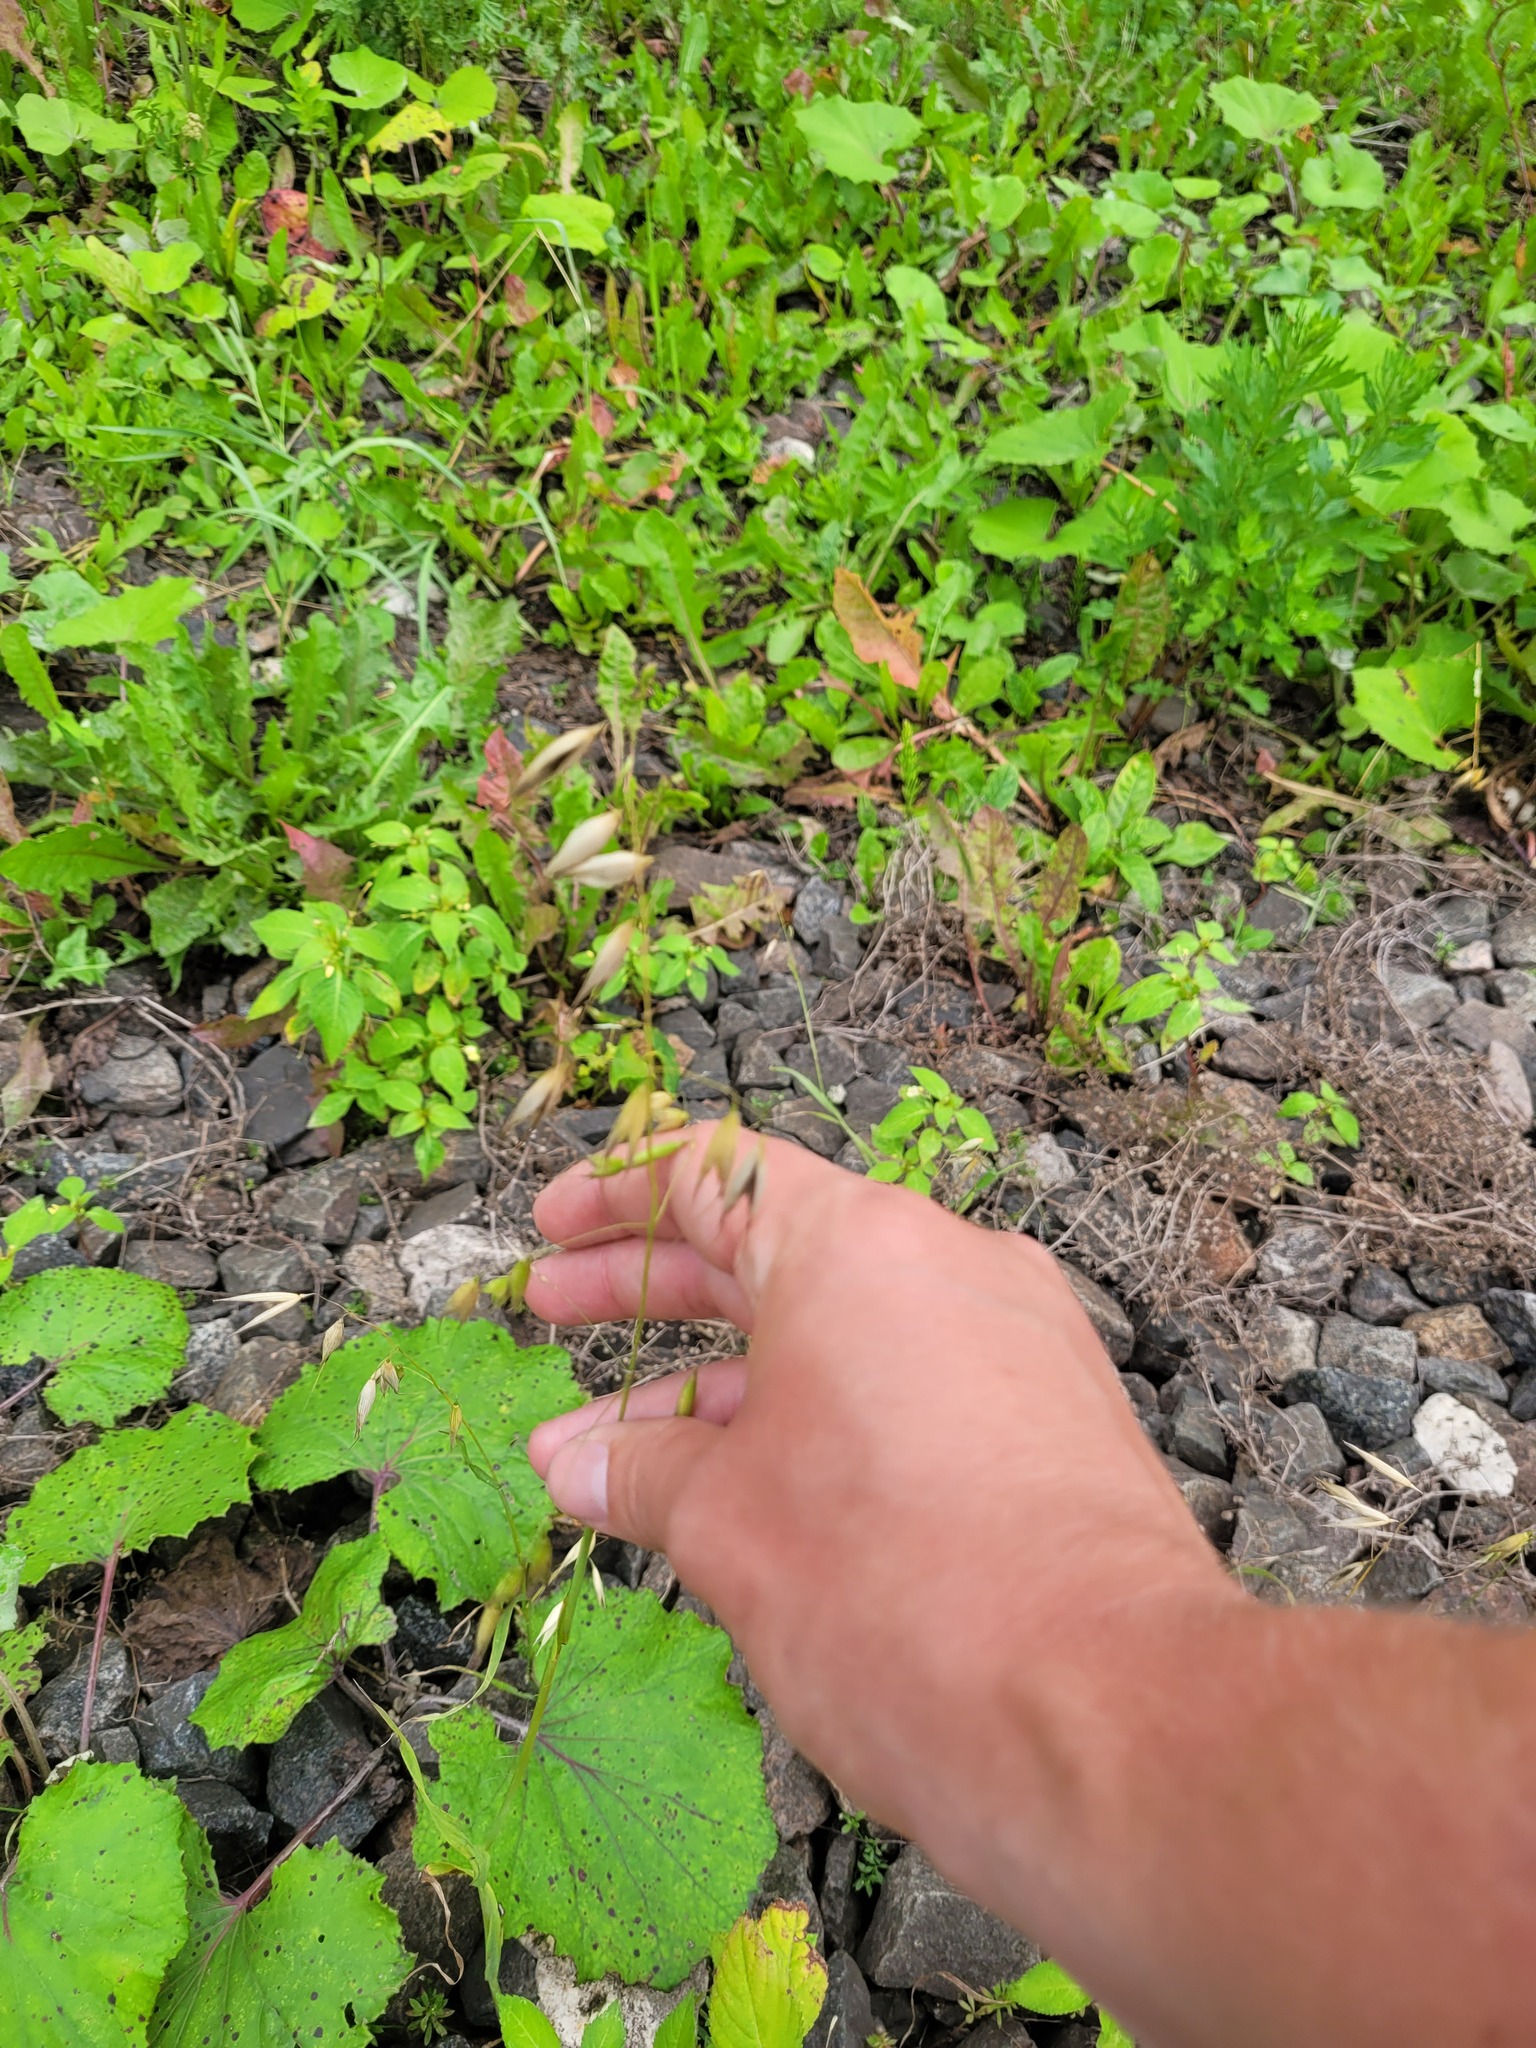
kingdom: Plantae
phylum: Tracheophyta
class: Liliopsida
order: Poales
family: Poaceae
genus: Avena
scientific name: Avena fatua
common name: Wild oat
